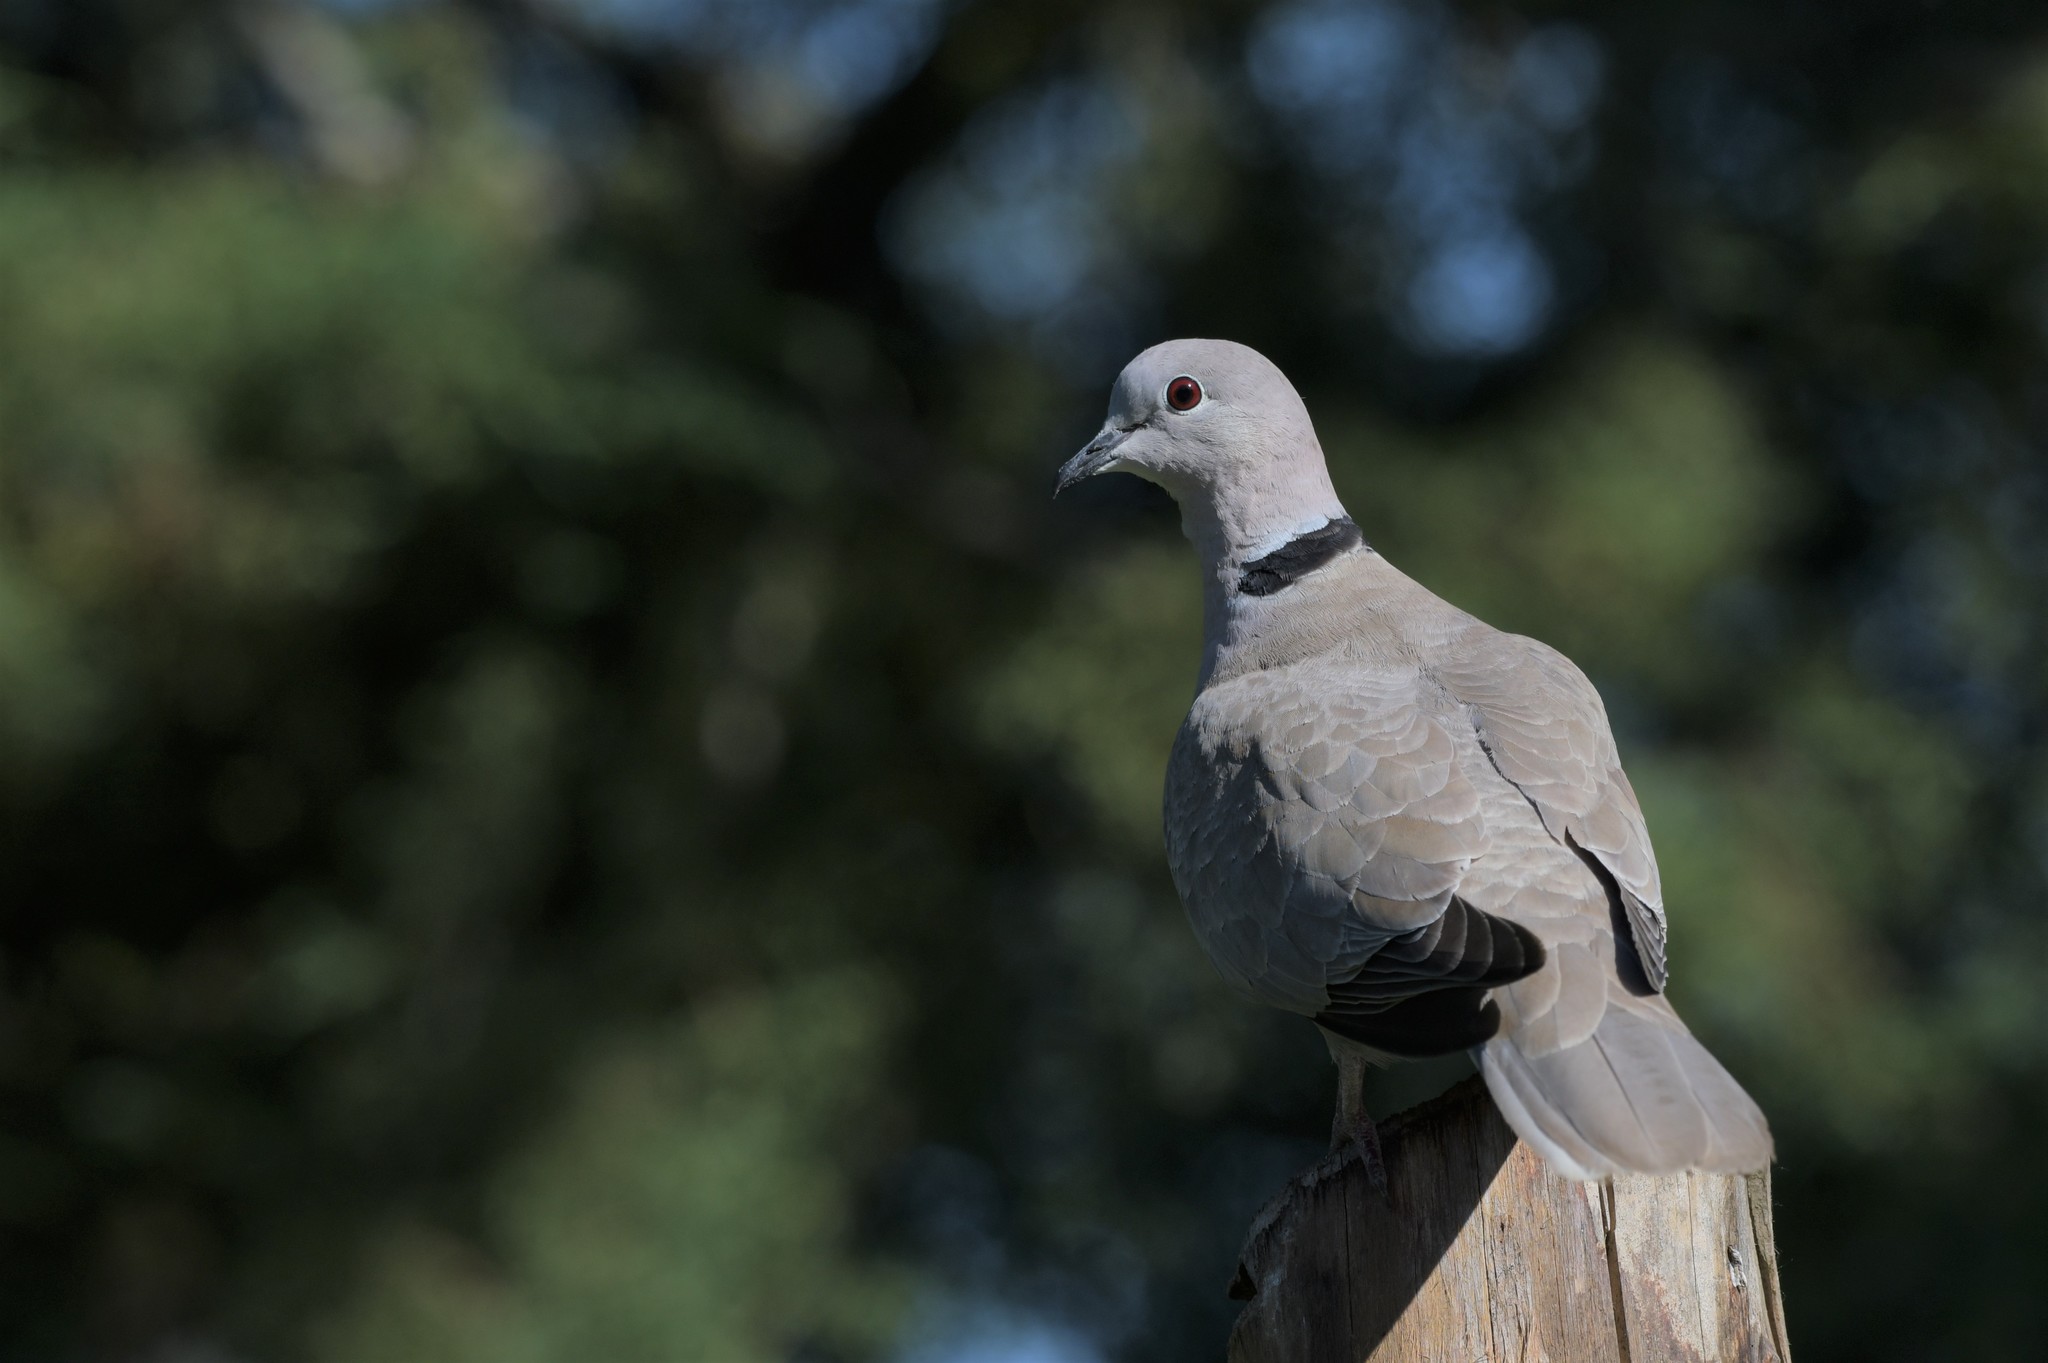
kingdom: Animalia
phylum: Chordata
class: Aves
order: Columbiformes
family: Columbidae
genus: Streptopelia
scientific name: Streptopelia decaocto
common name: Eurasian collared dove
